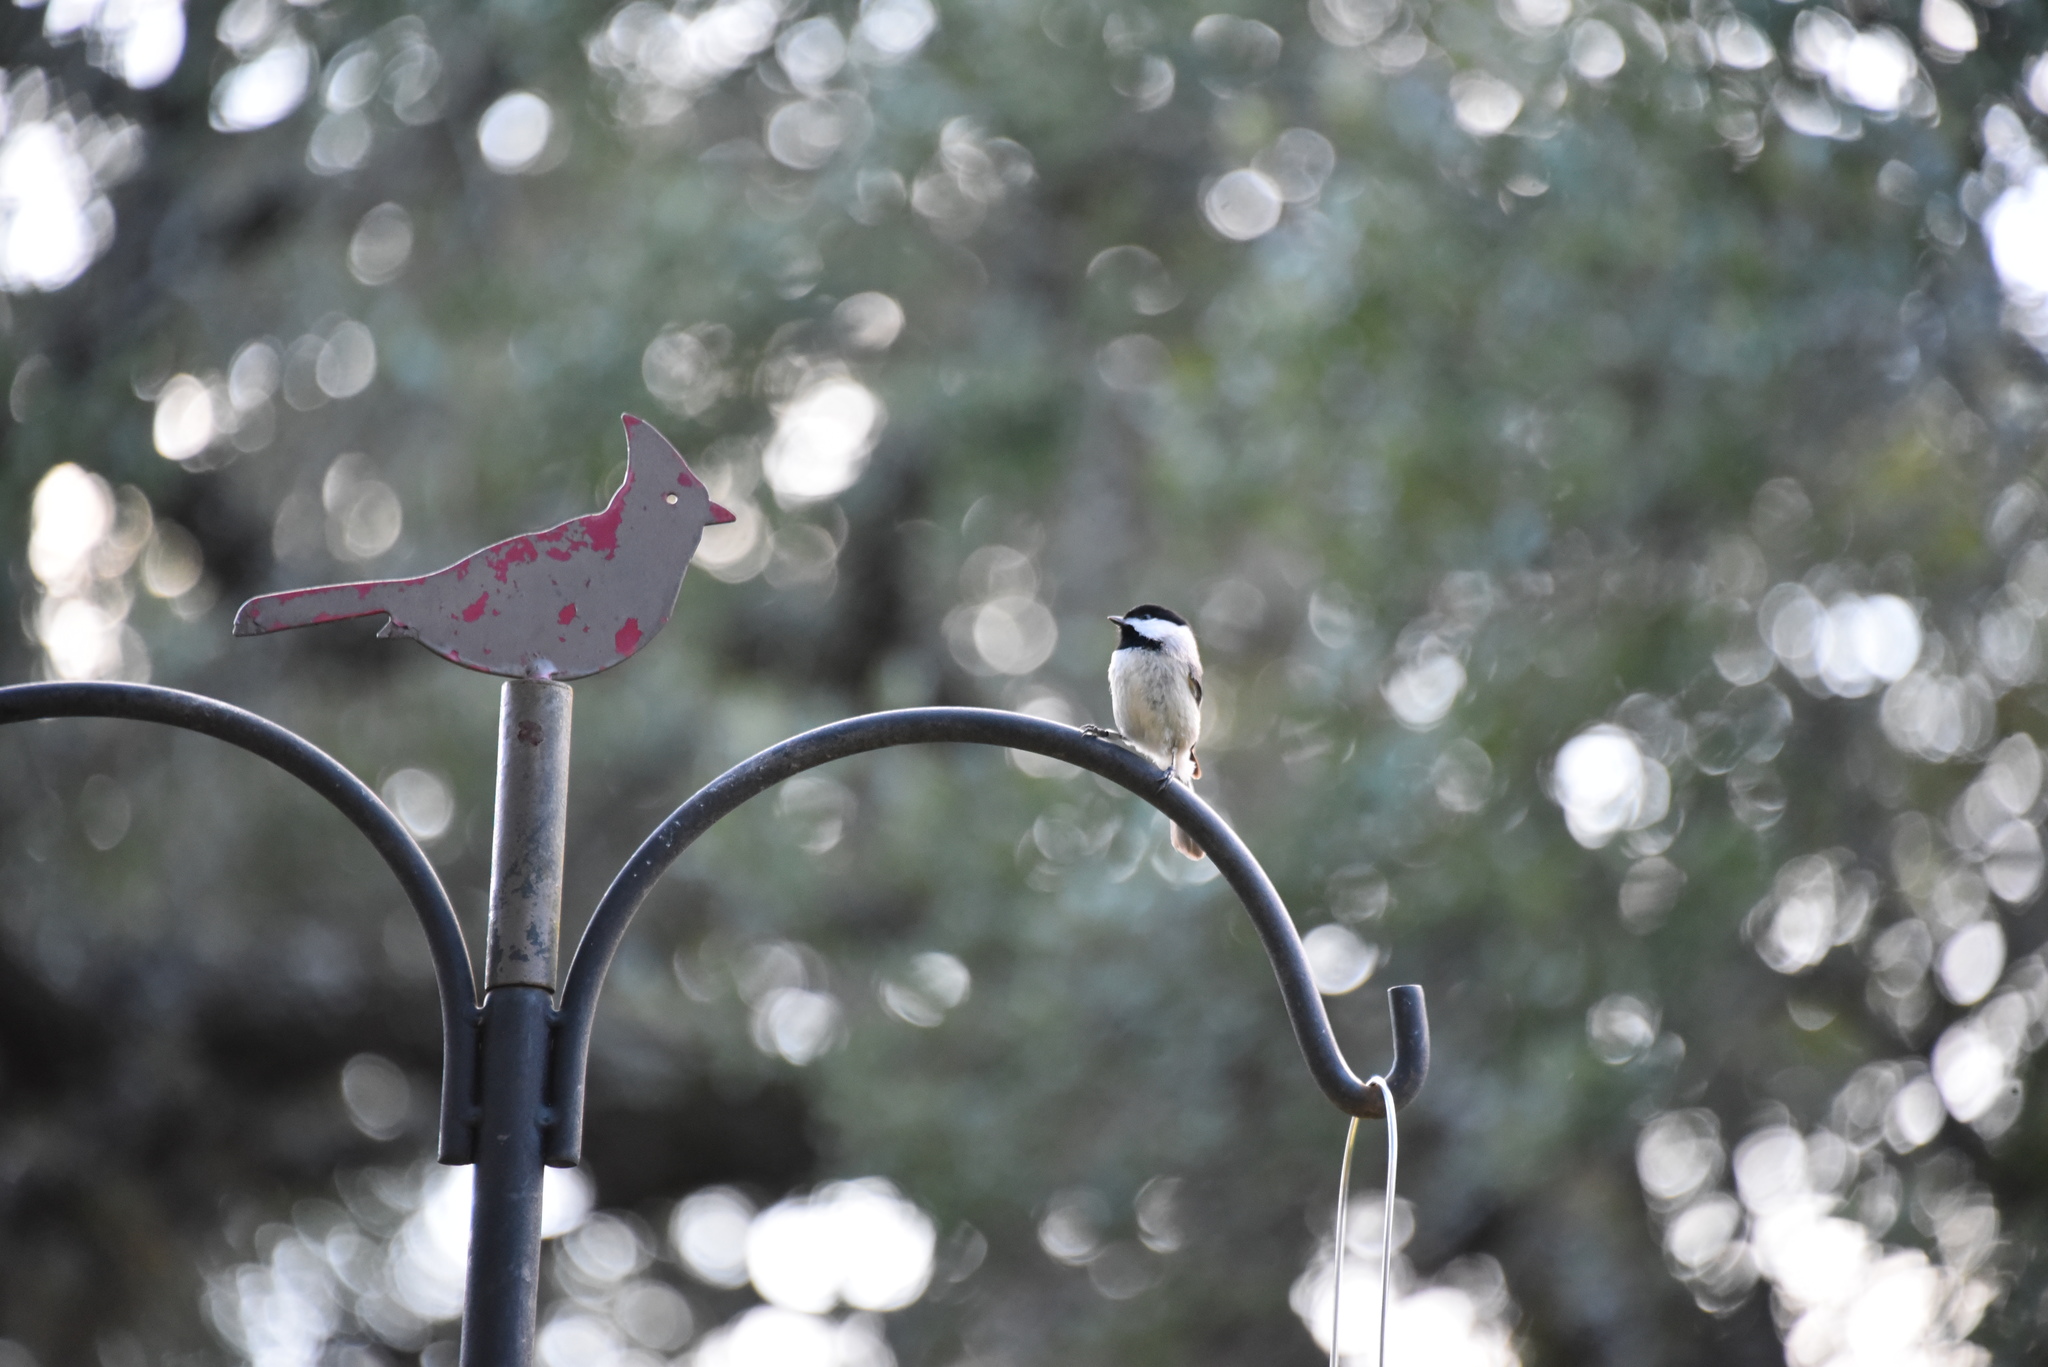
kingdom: Animalia
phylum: Chordata
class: Aves
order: Passeriformes
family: Paridae
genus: Poecile
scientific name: Poecile carolinensis
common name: Carolina chickadee
